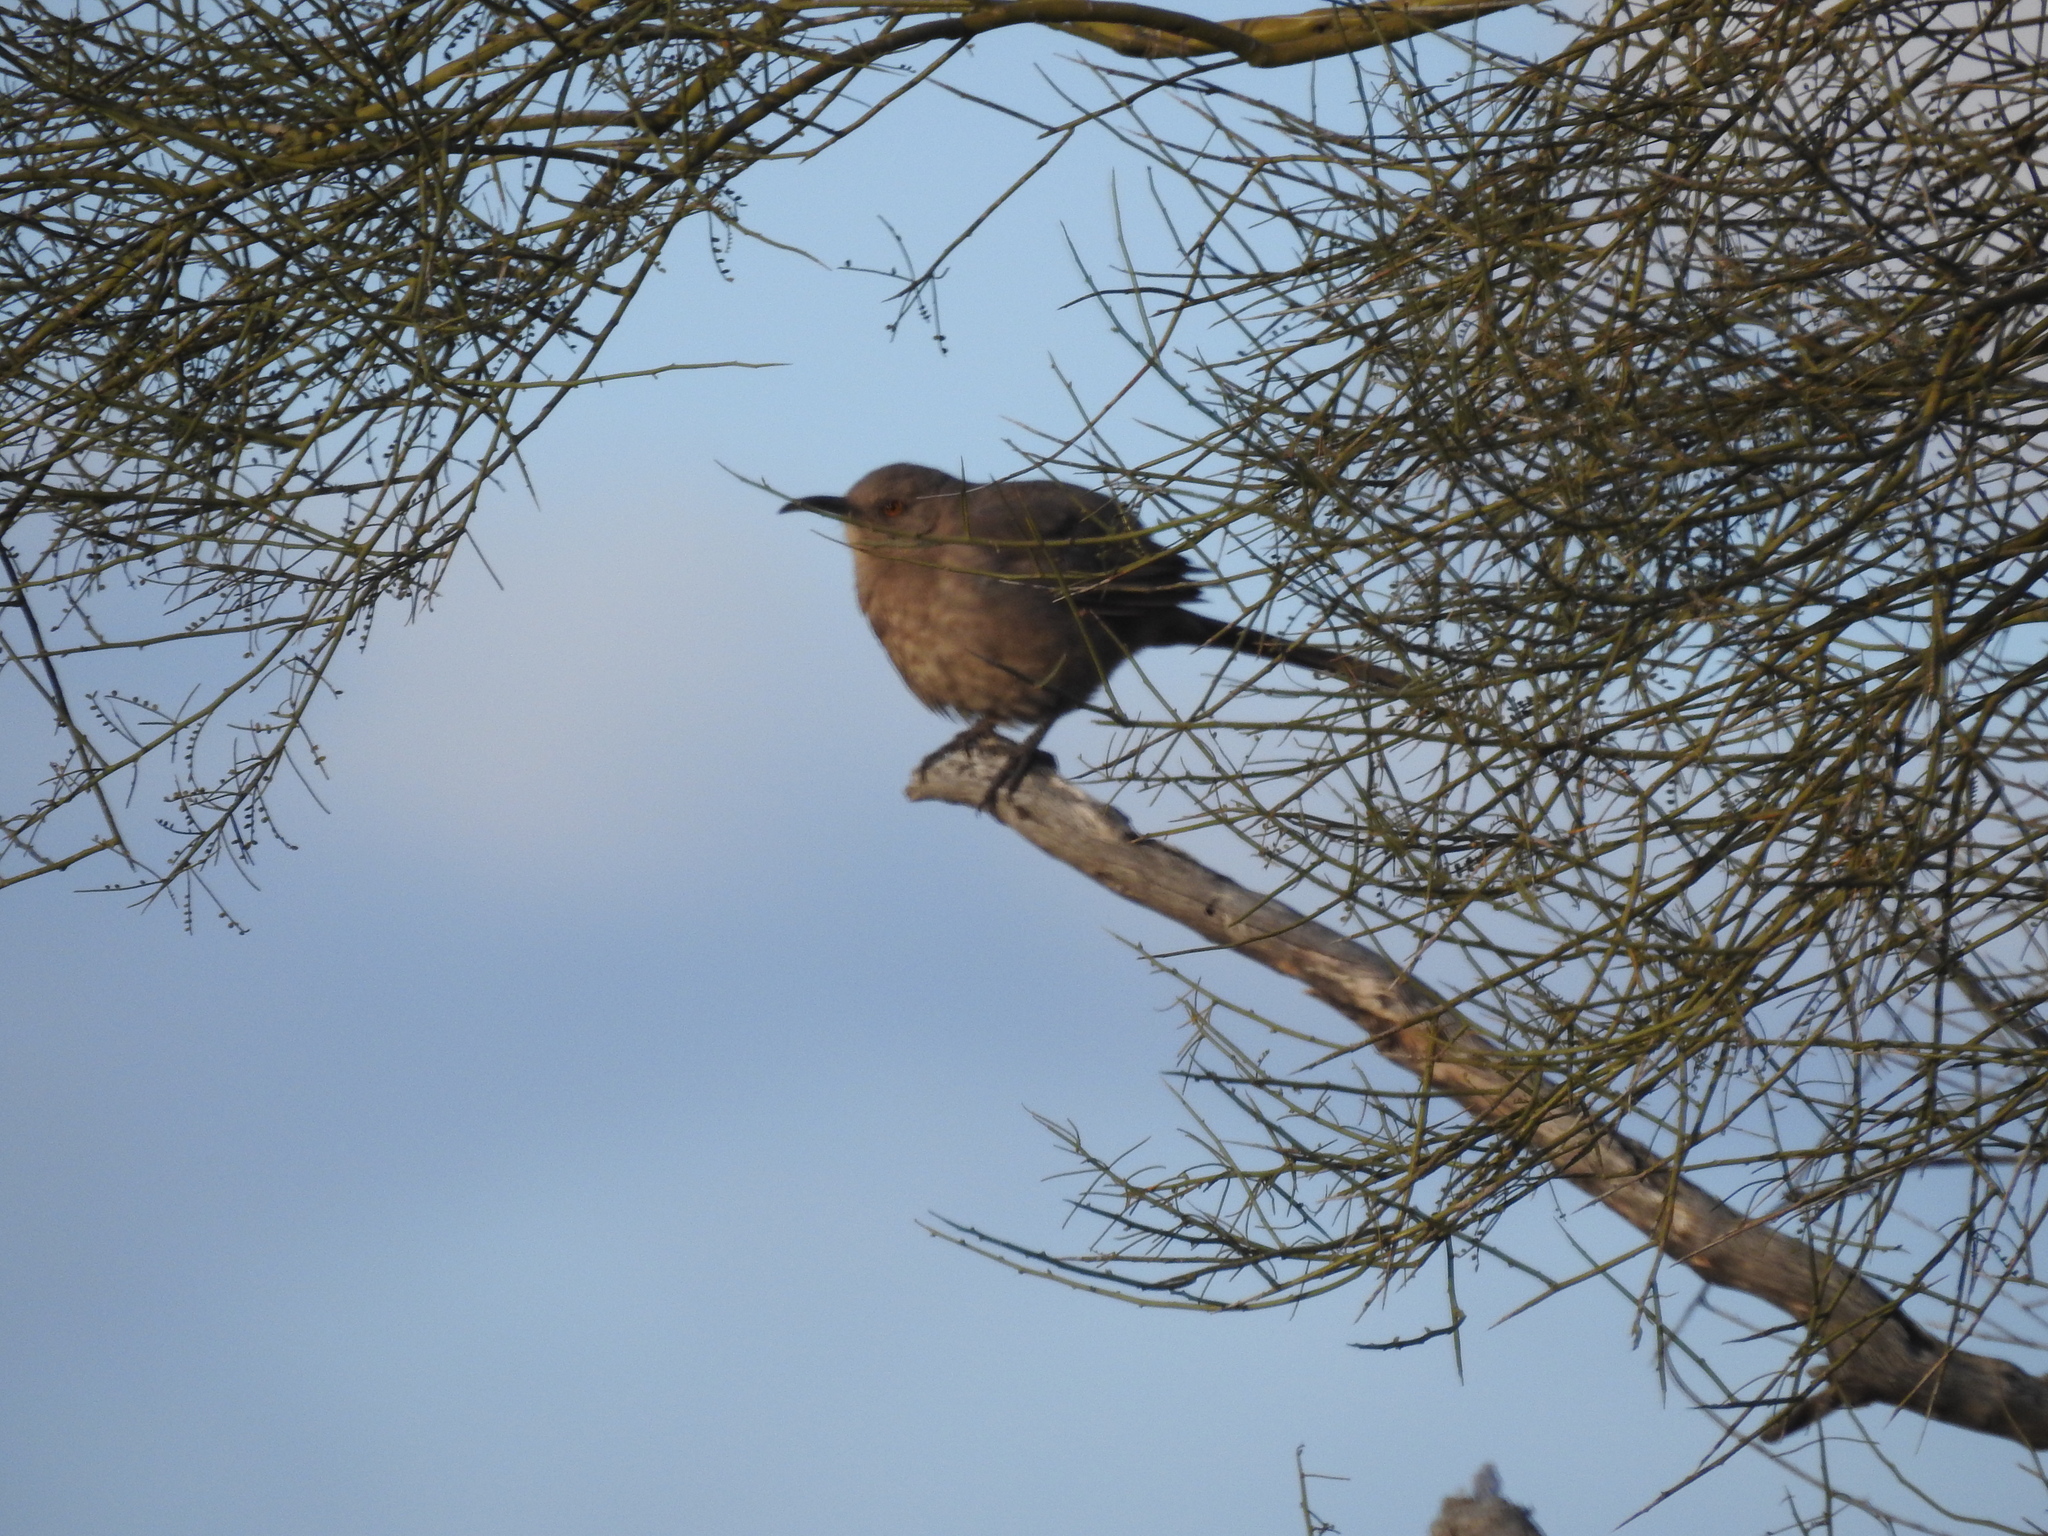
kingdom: Animalia
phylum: Chordata
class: Aves
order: Passeriformes
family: Mimidae
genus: Toxostoma
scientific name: Toxostoma curvirostre
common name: Curve-billed thrasher
